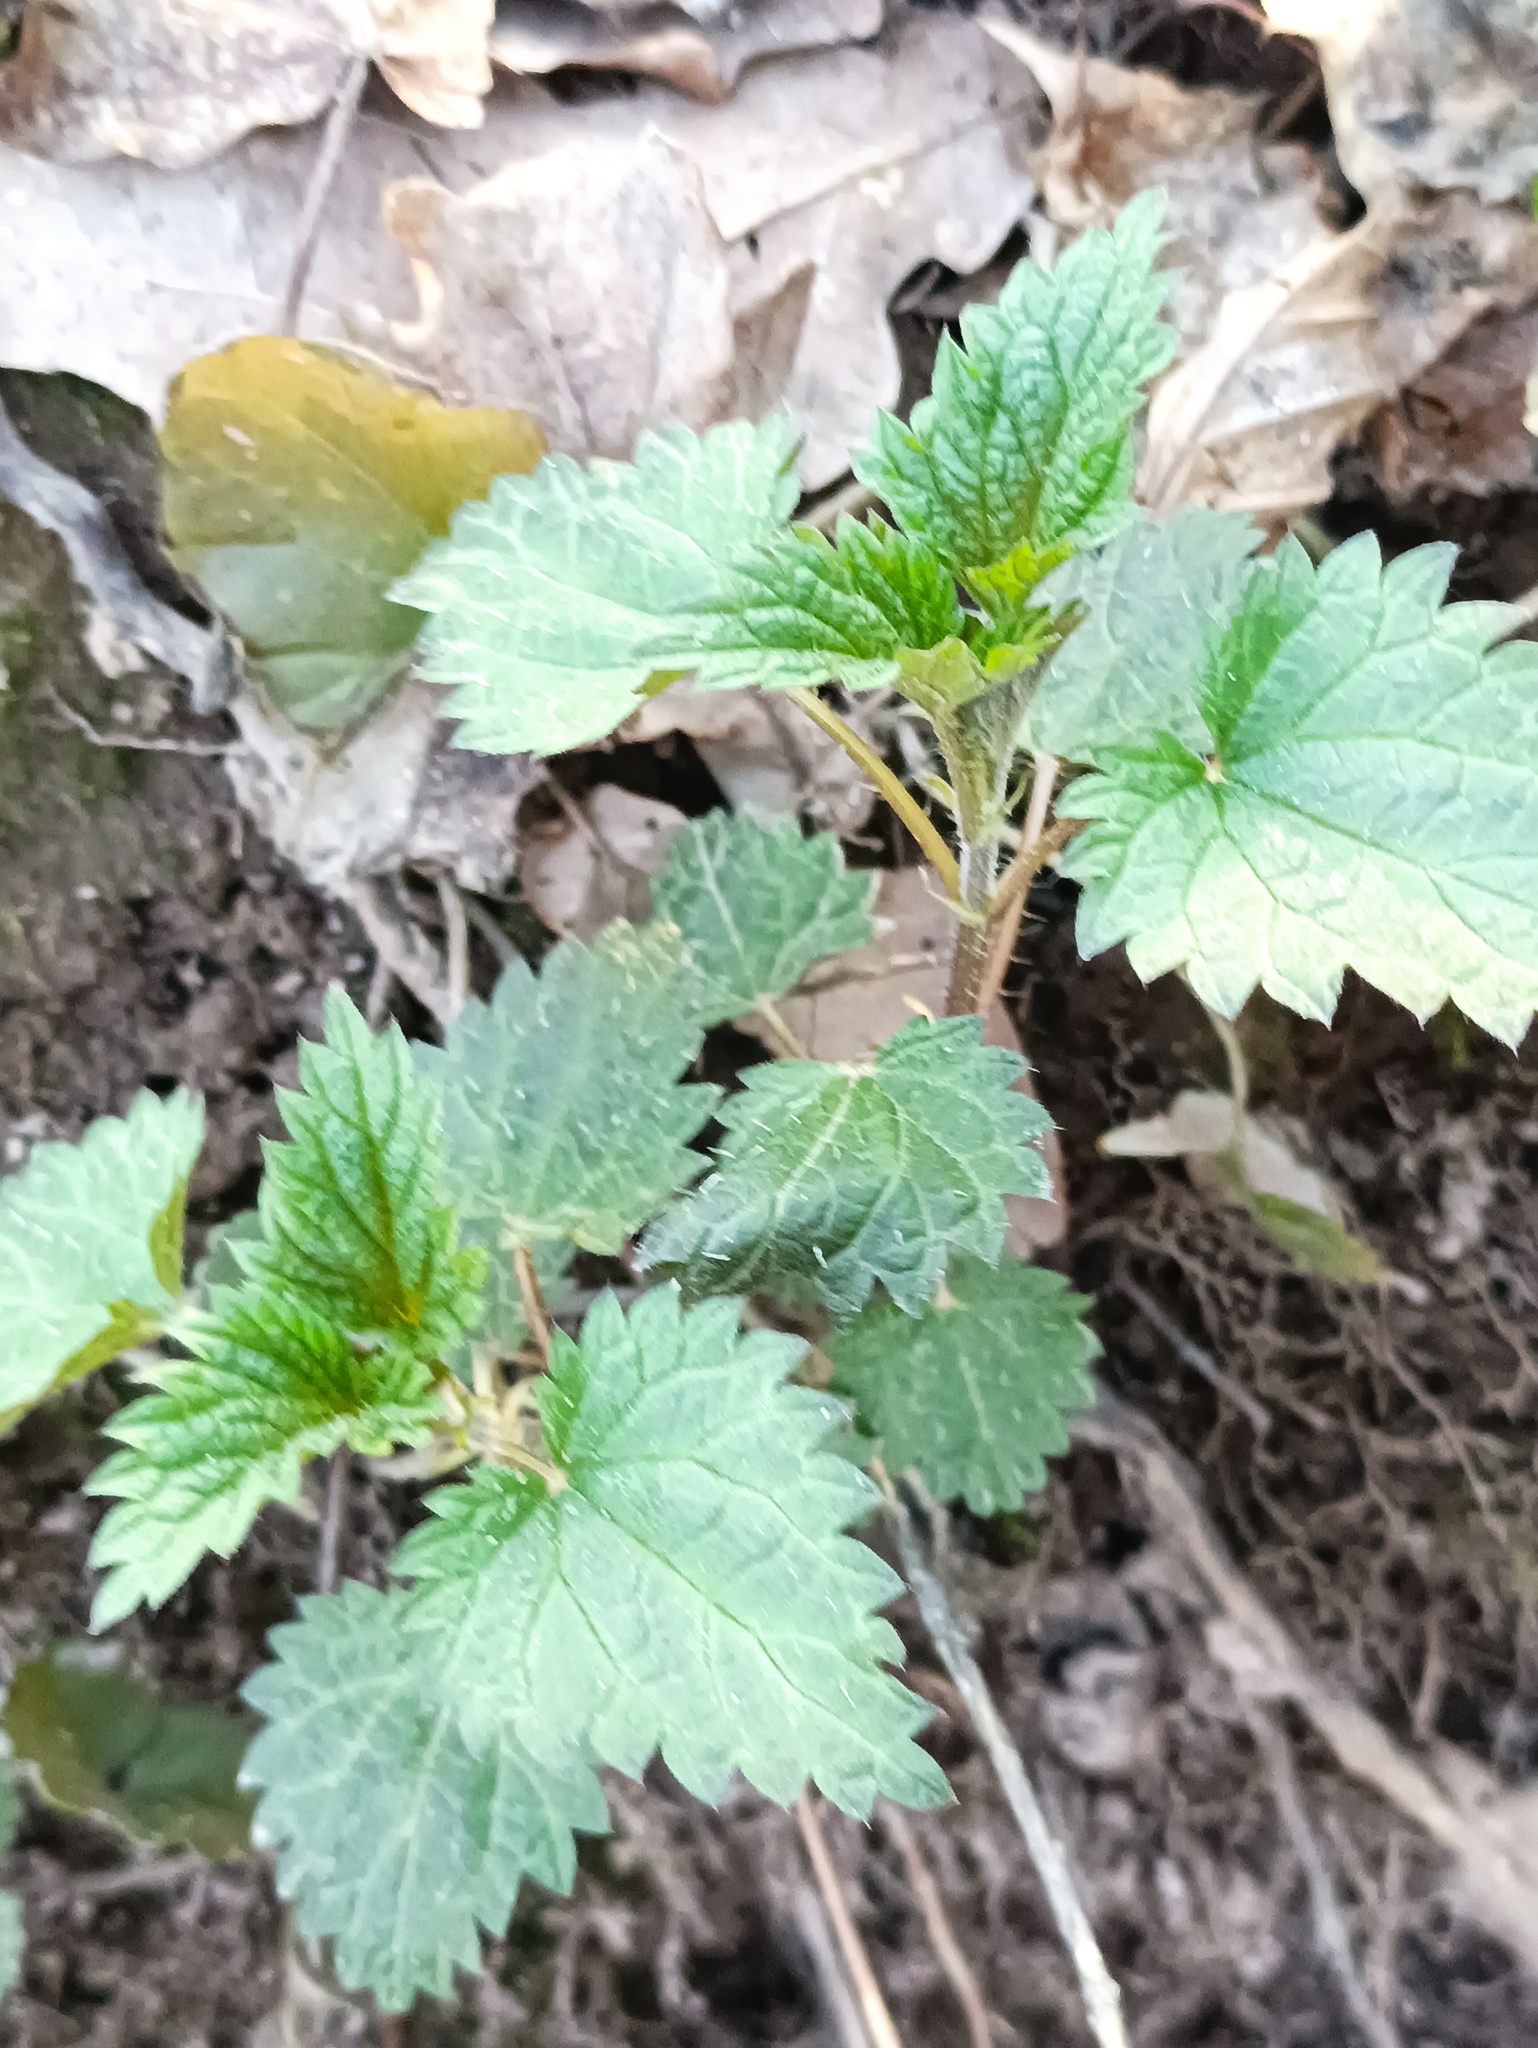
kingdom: Plantae
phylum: Tracheophyta
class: Magnoliopsida
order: Rosales
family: Urticaceae
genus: Urtica
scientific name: Urtica dioica
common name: Common nettle
